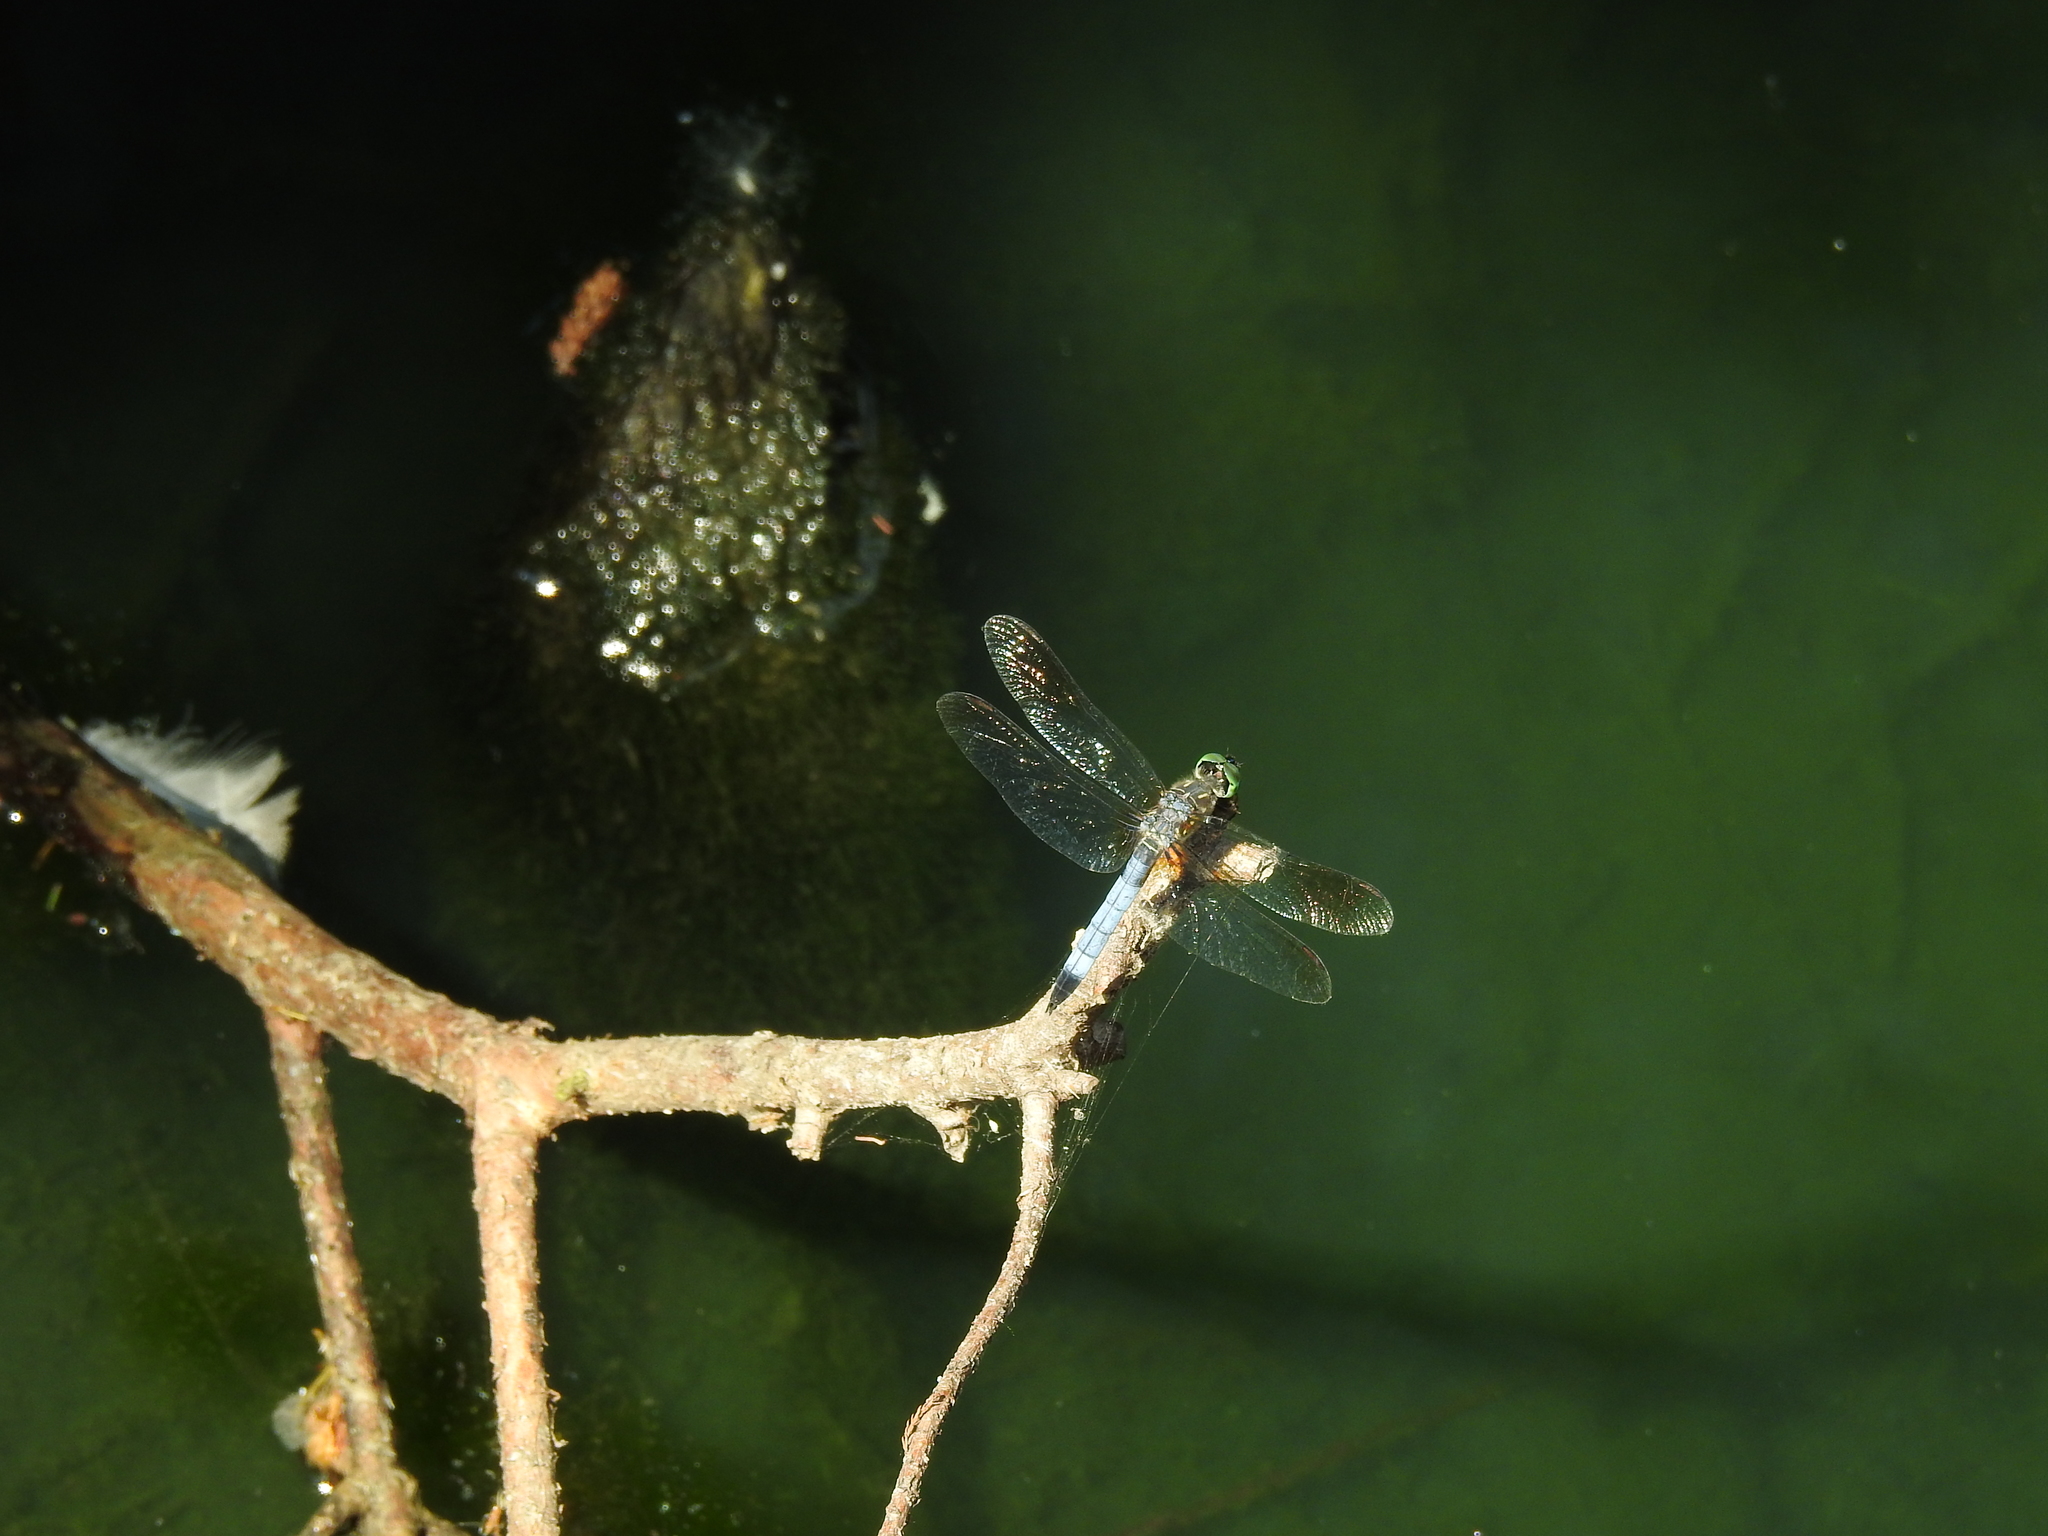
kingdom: Animalia
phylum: Arthropoda
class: Insecta
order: Odonata
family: Libellulidae
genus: Pachydiplax
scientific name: Pachydiplax longipennis
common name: Blue dasher
